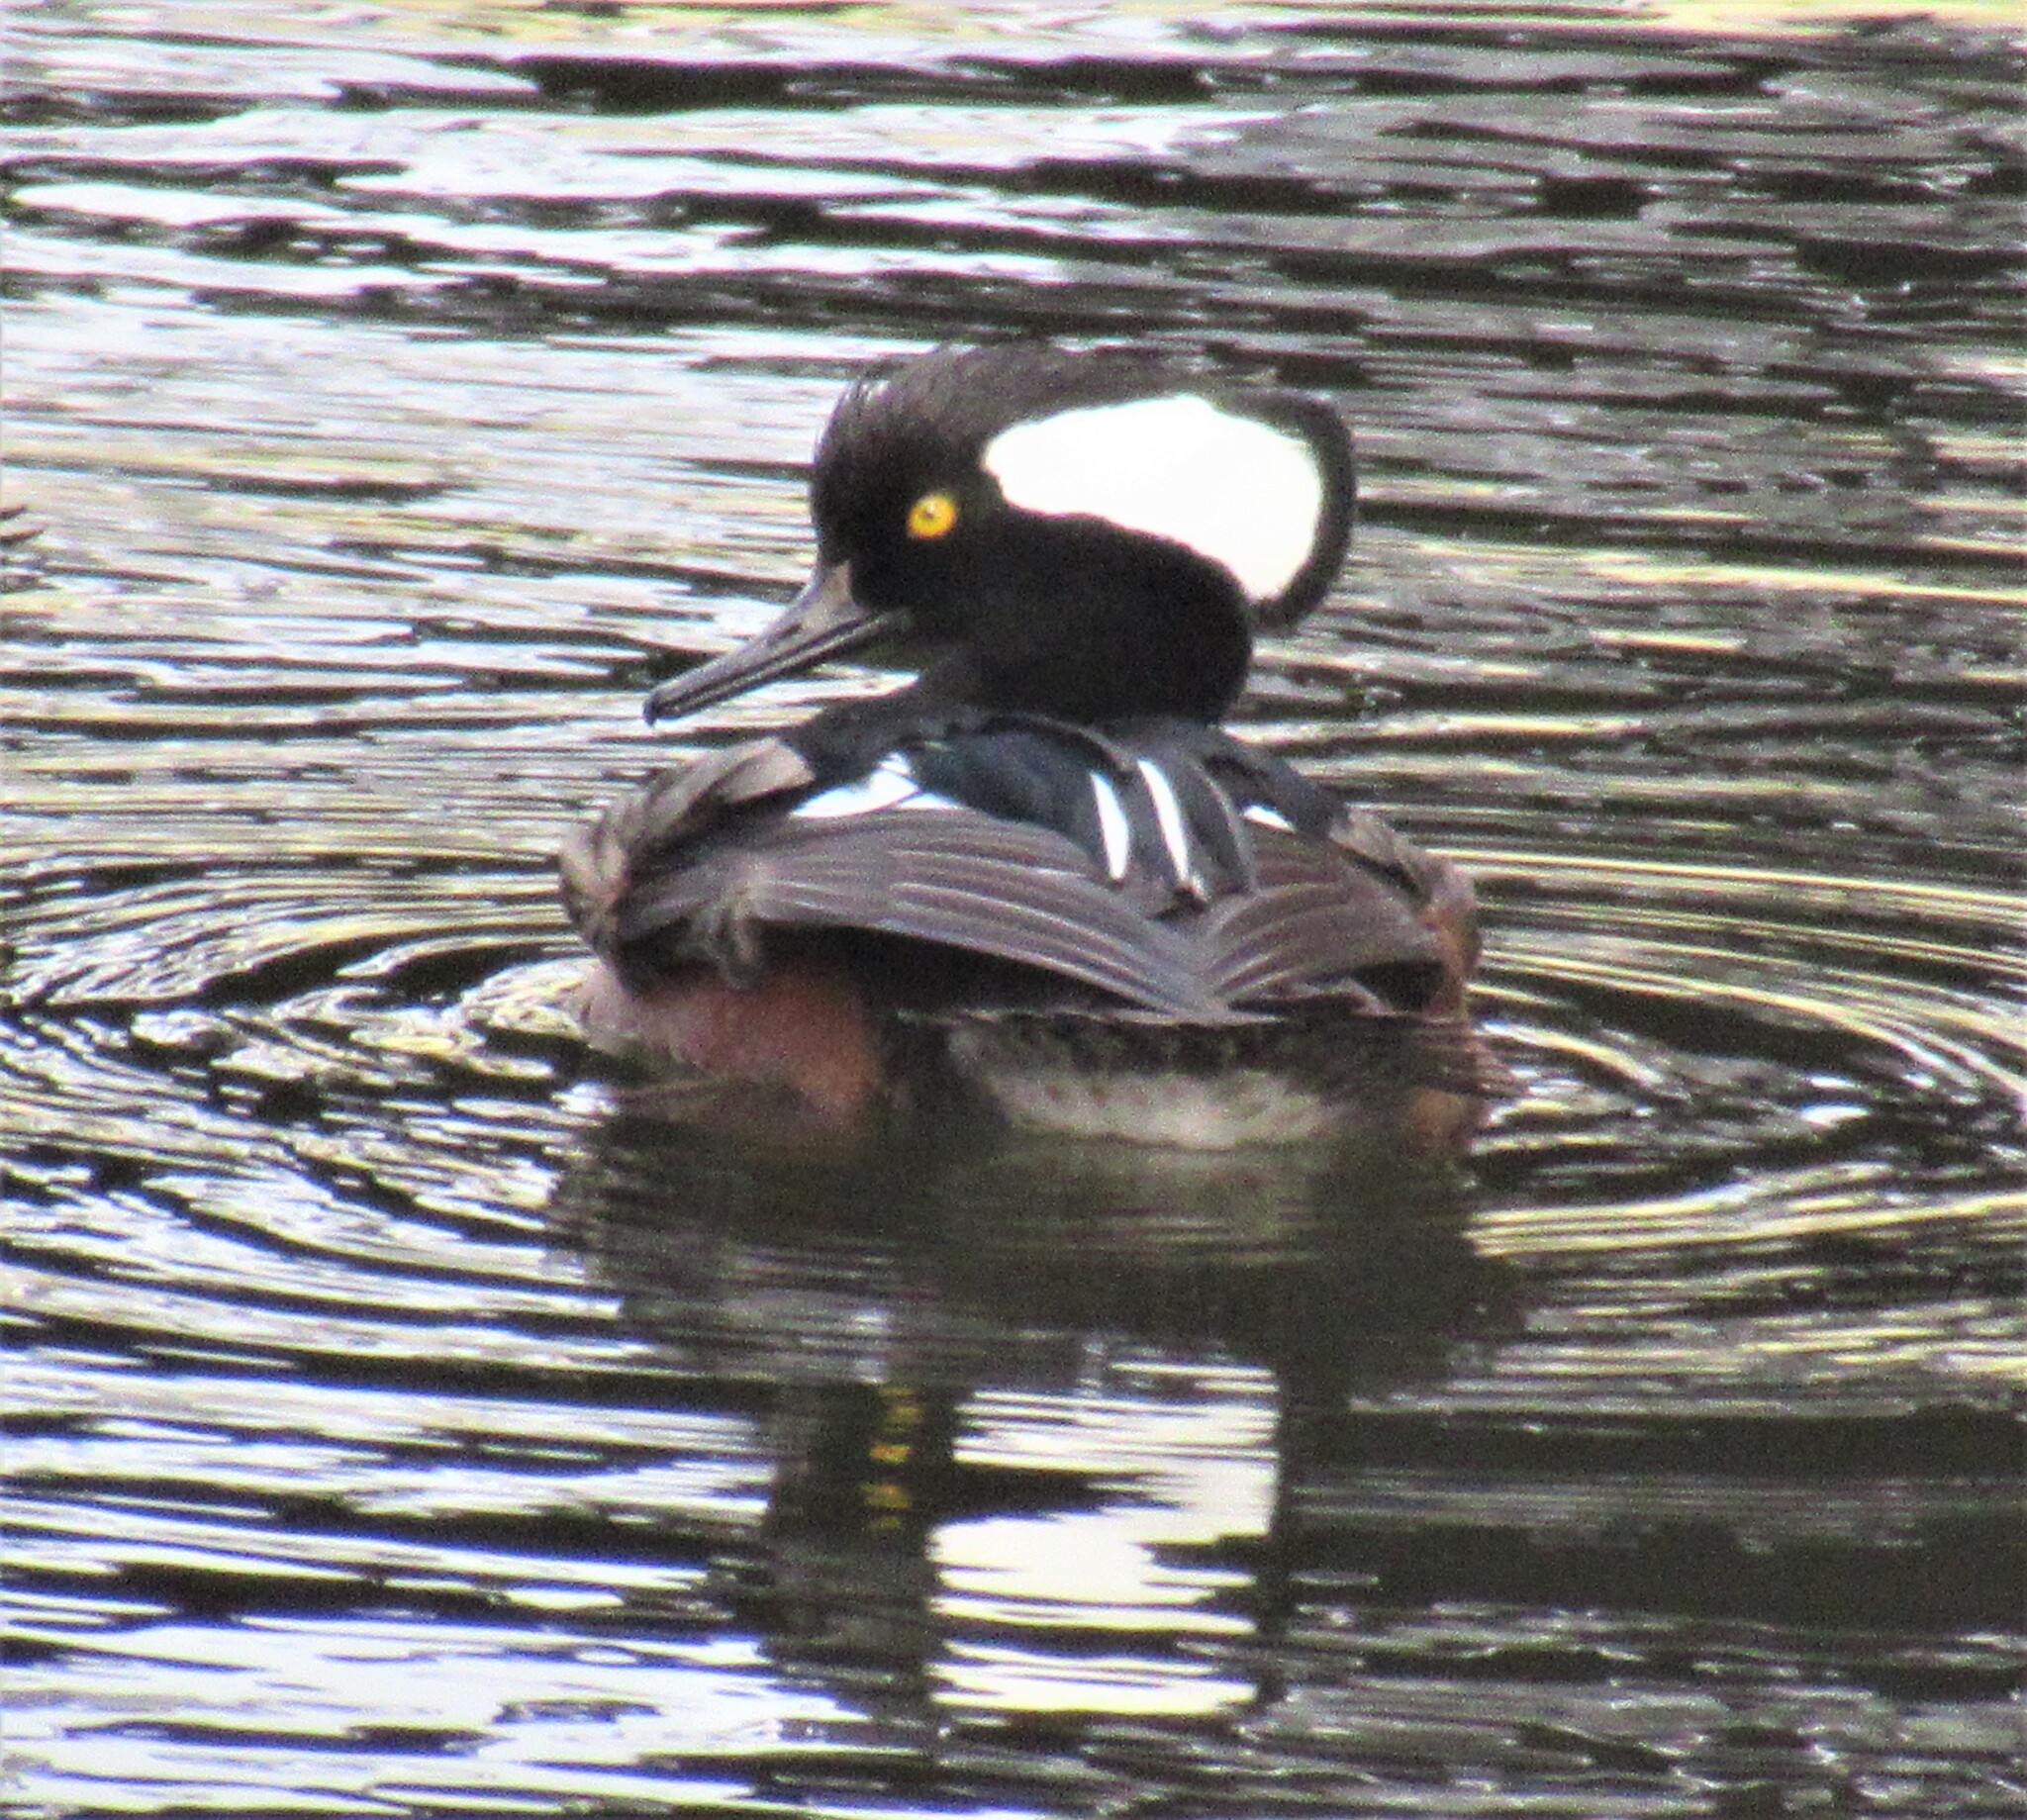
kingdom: Animalia
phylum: Chordata
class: Aves
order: Anseriformes
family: Anatidae
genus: Lophodytes
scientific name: Lophodytes cucullatus
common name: Hooded merganser
